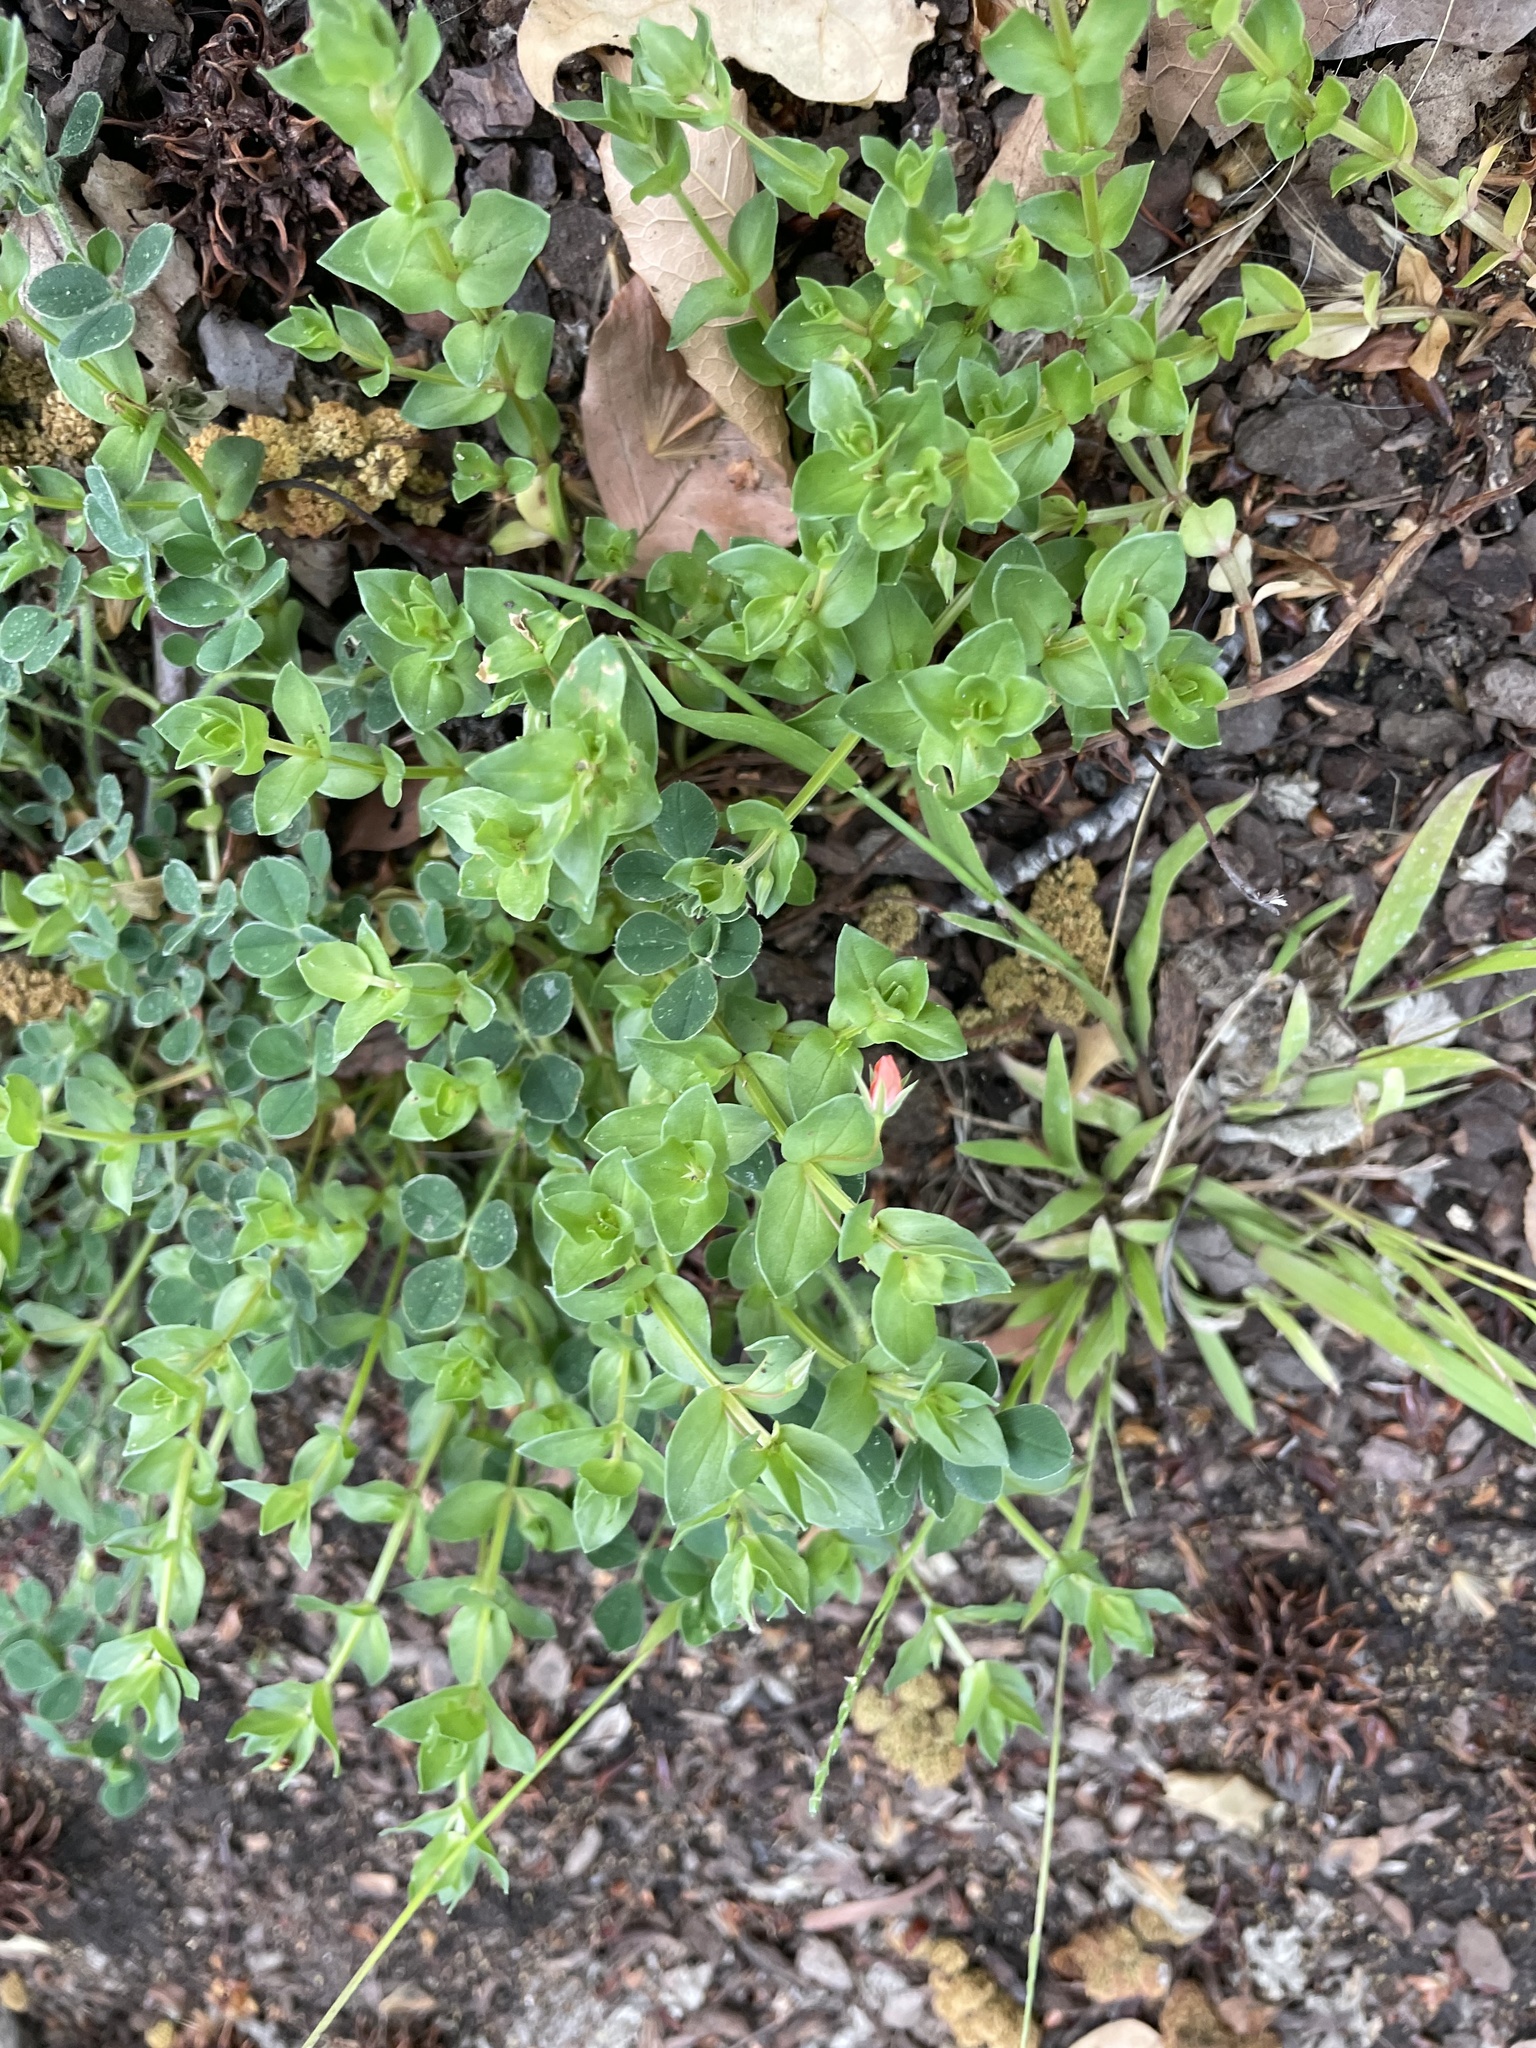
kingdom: Plantae
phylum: Tracheophyta
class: Magnoliopsida
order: Ericales
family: Primulaceae
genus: Lysimachia
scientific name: Lysimachia arvensis
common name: Scarlet pimpernel
